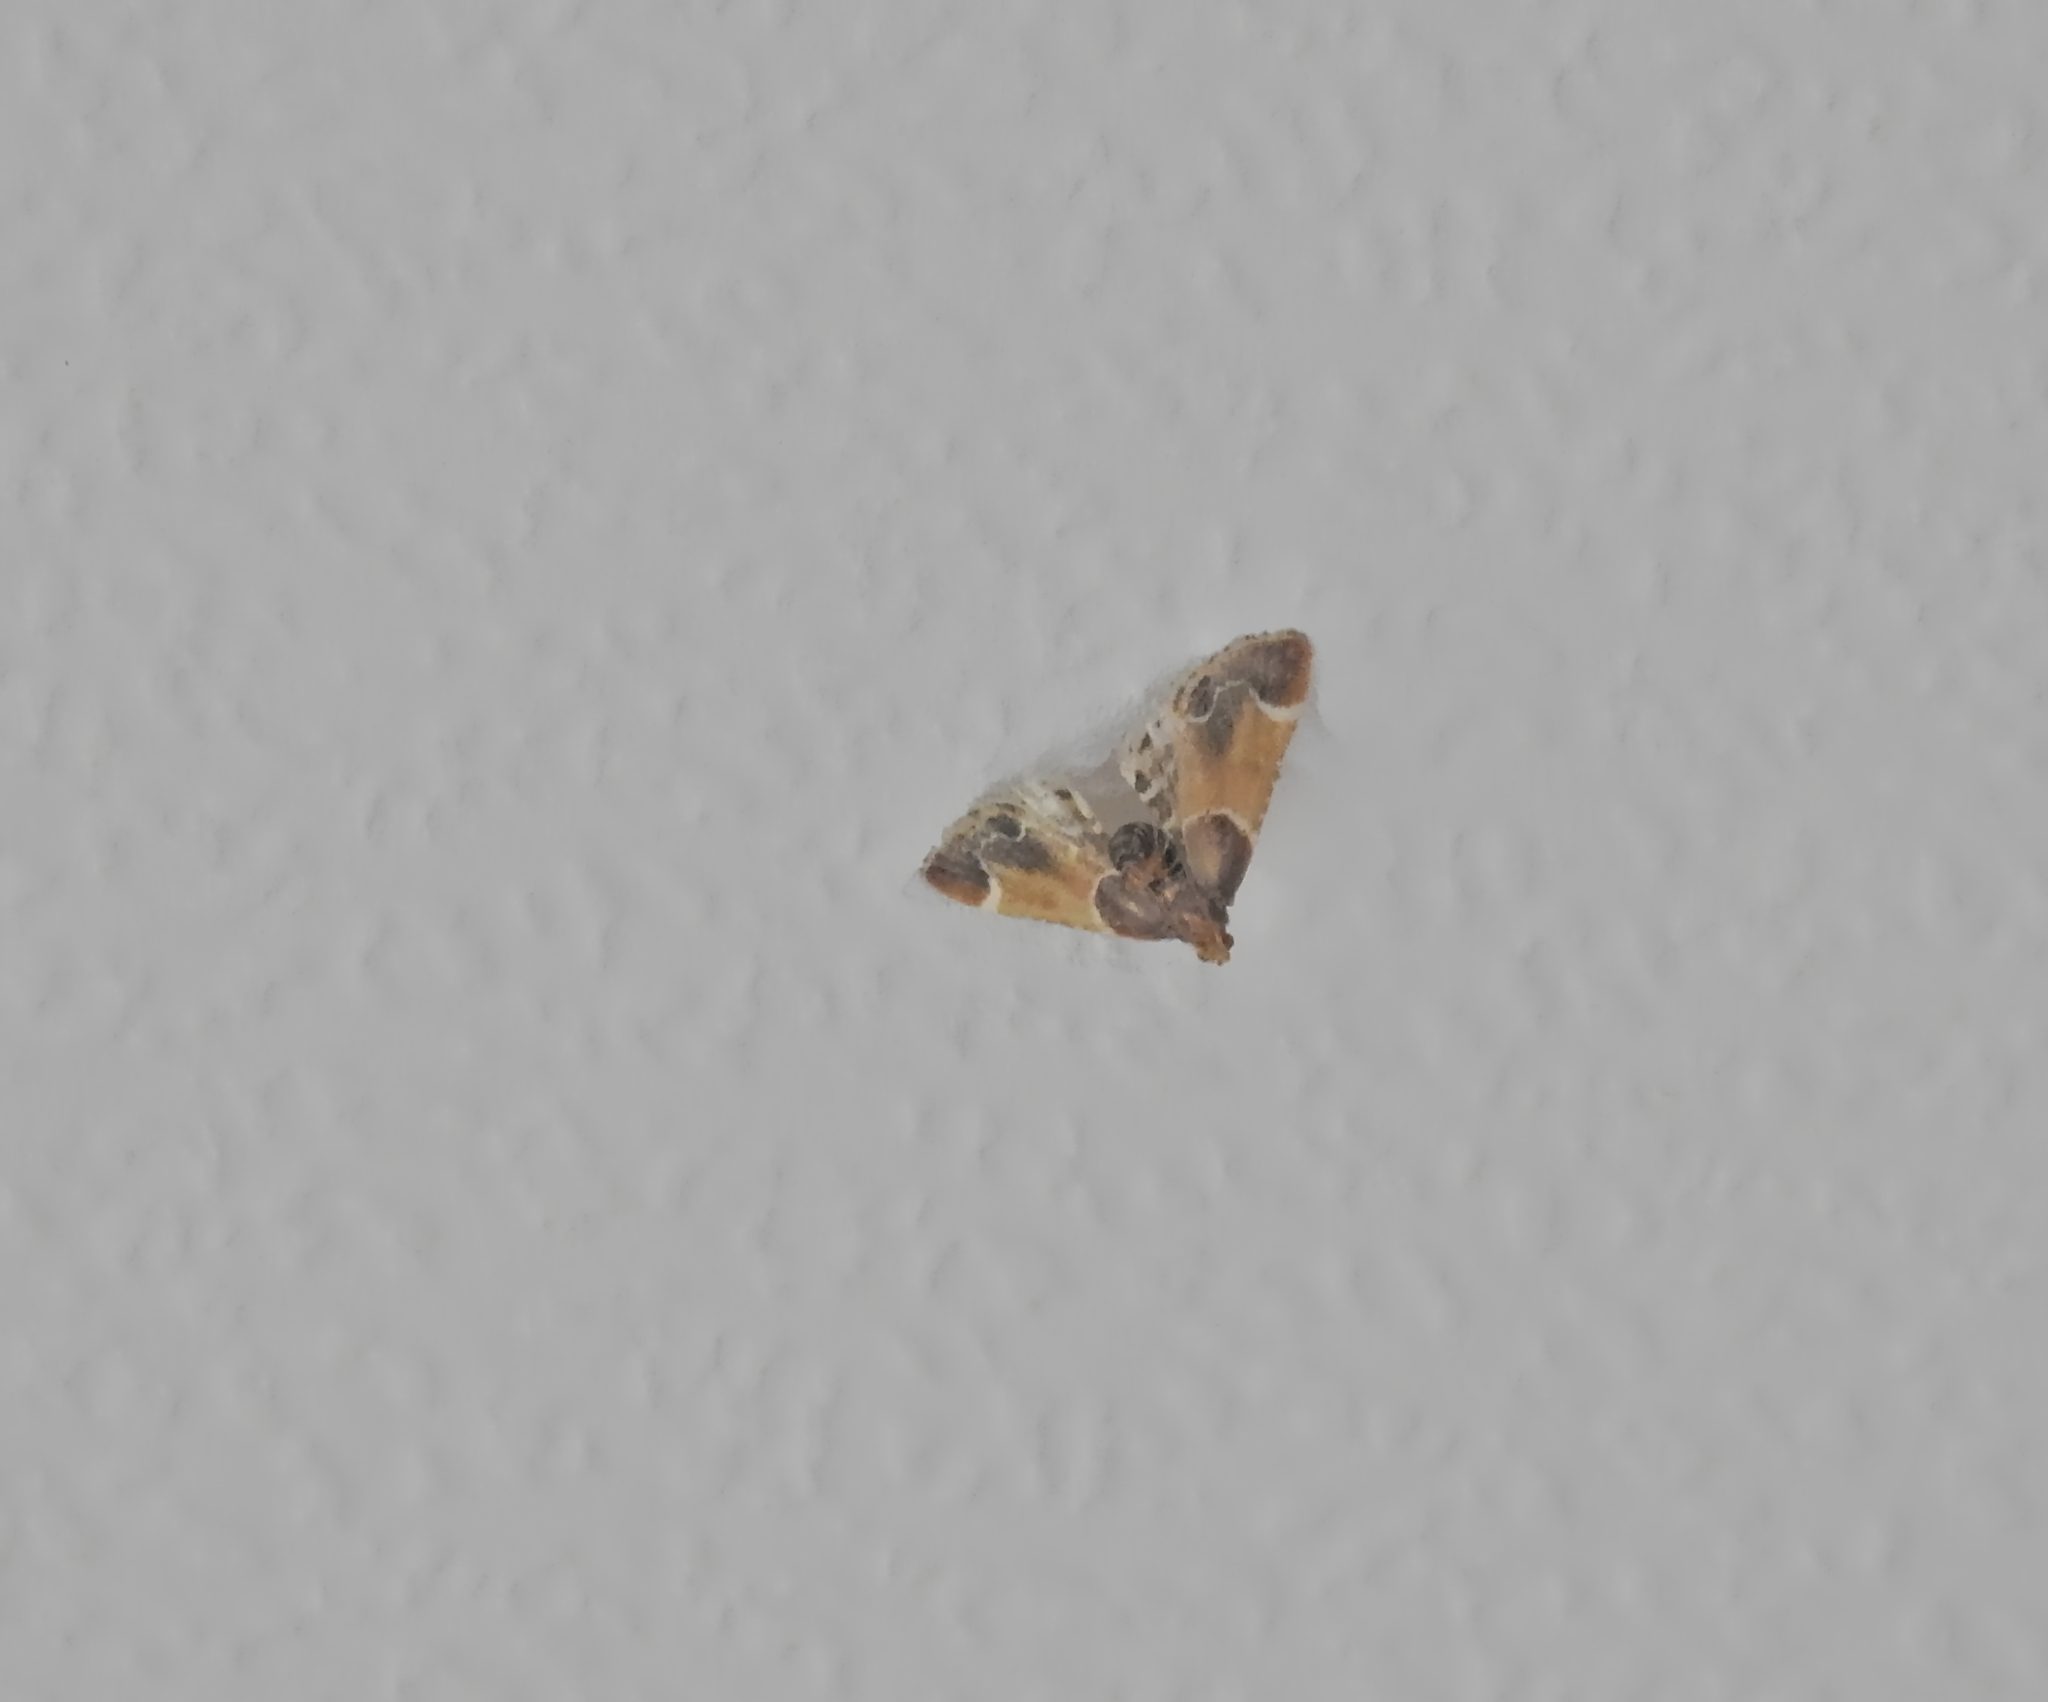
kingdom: Animalia
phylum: Arthropoda
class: Insecta
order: Lepidoptera
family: Pyralidae
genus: Pyralis
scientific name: Pyralis farinalis
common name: Meal moth
